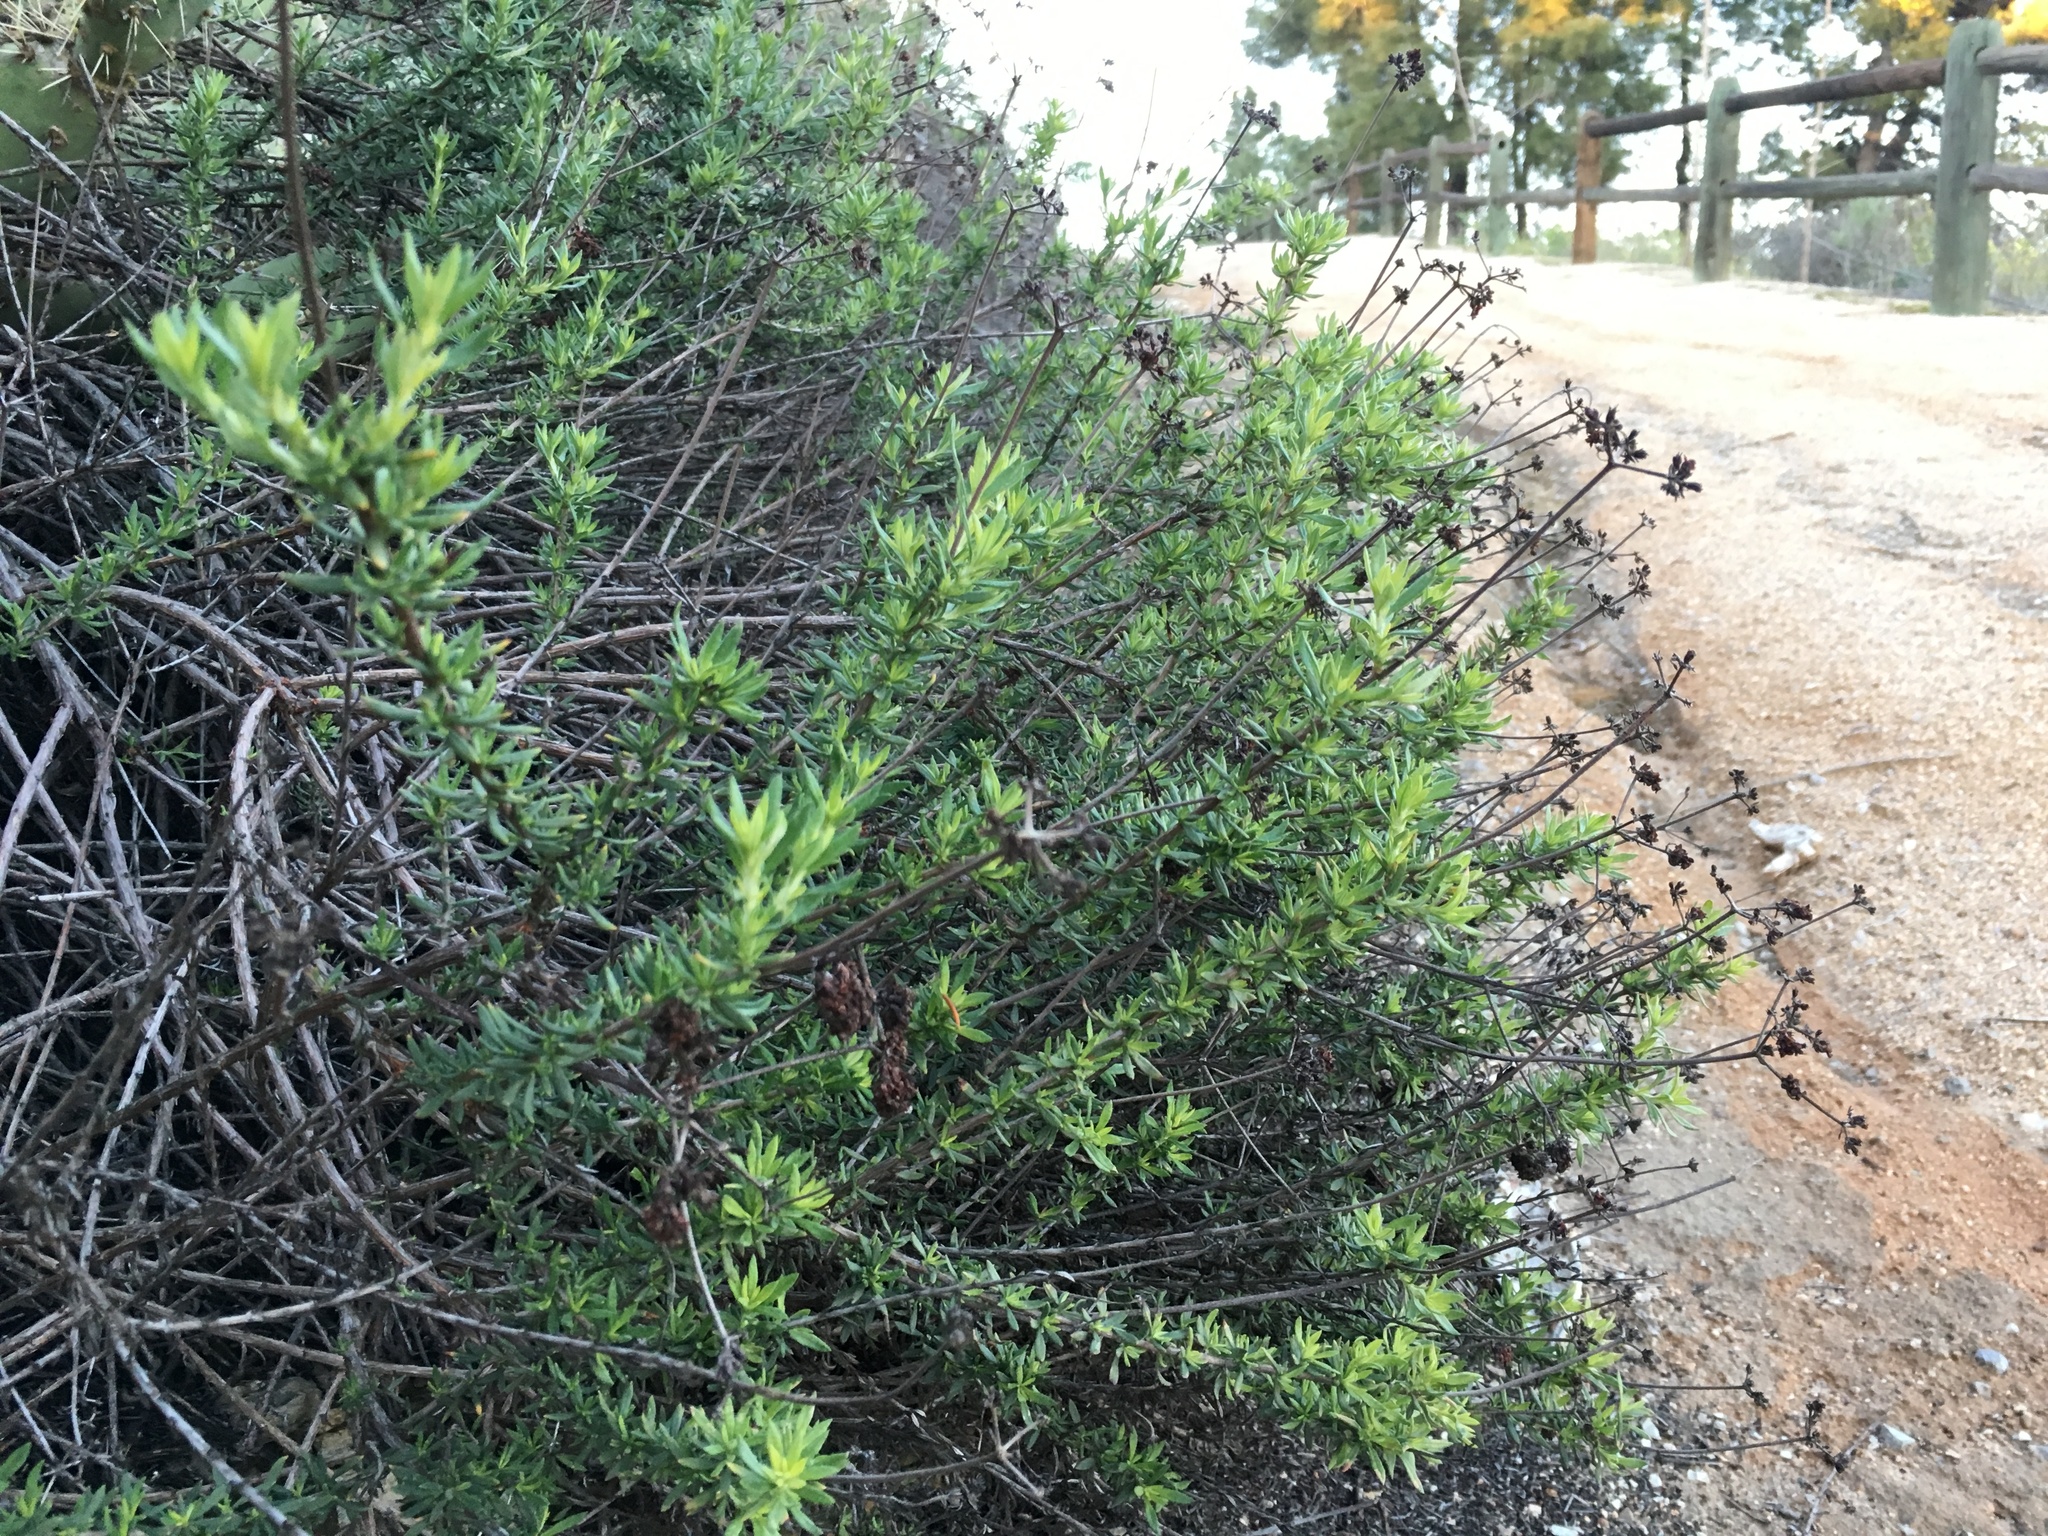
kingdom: Plantae
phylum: Tracheophyta
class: Magnoliopsida
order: Caryophyllales
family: Polygonaceae
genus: Eriogonum
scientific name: Eriogonum fasciculatum
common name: California wild buckwheat
